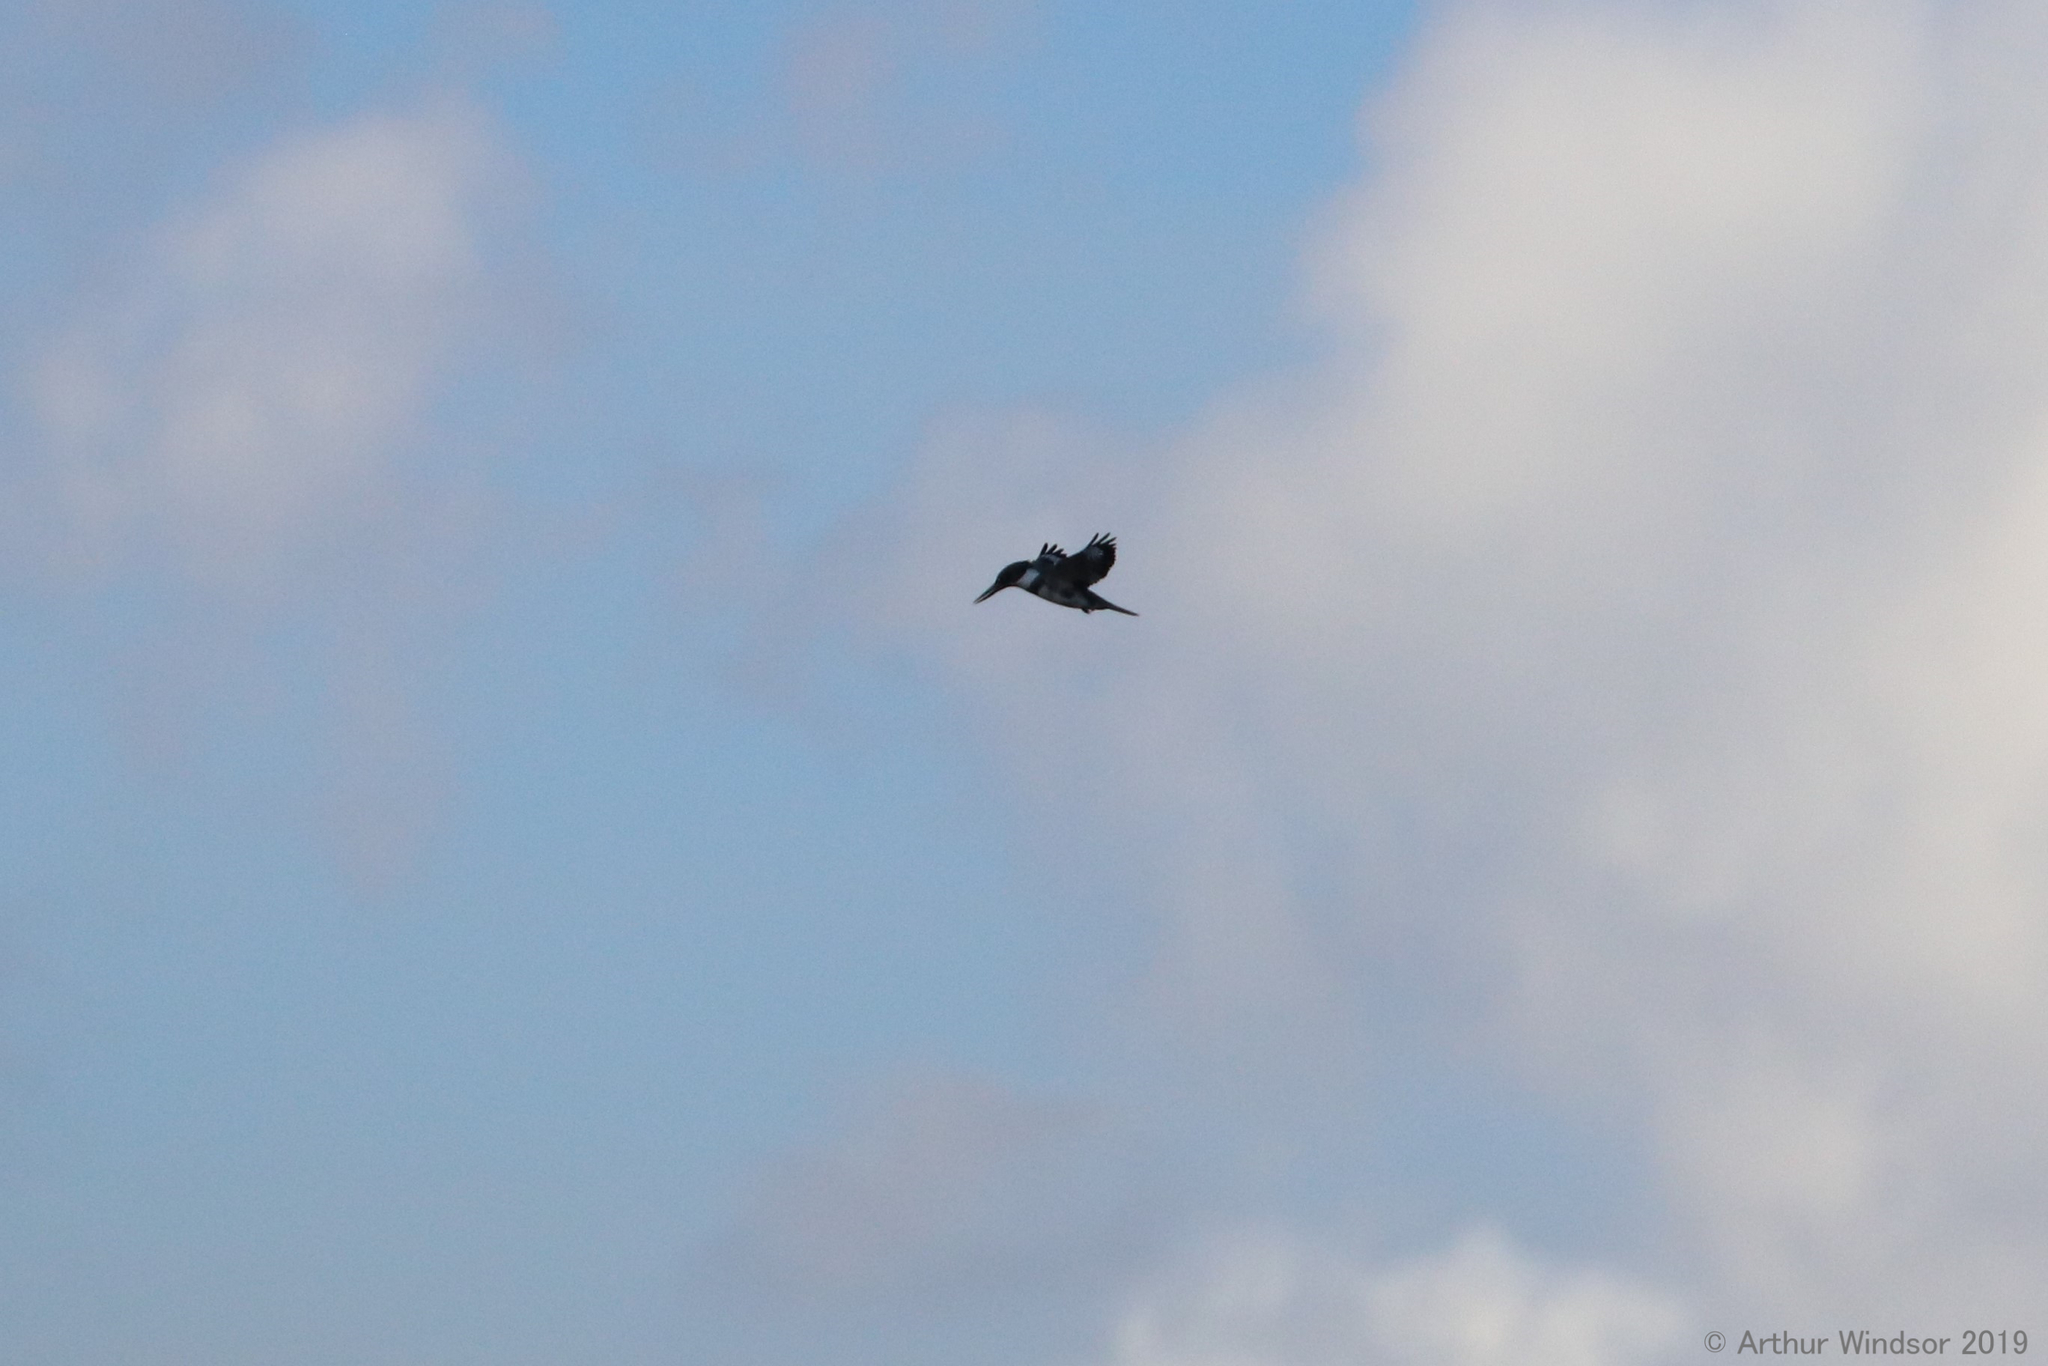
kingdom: Animalia
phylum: Chordata
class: Aves
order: Coraciiformes
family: Alcedinidae
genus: Megaceryle
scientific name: Megaceryle alcyon
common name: Belted kingfisher
